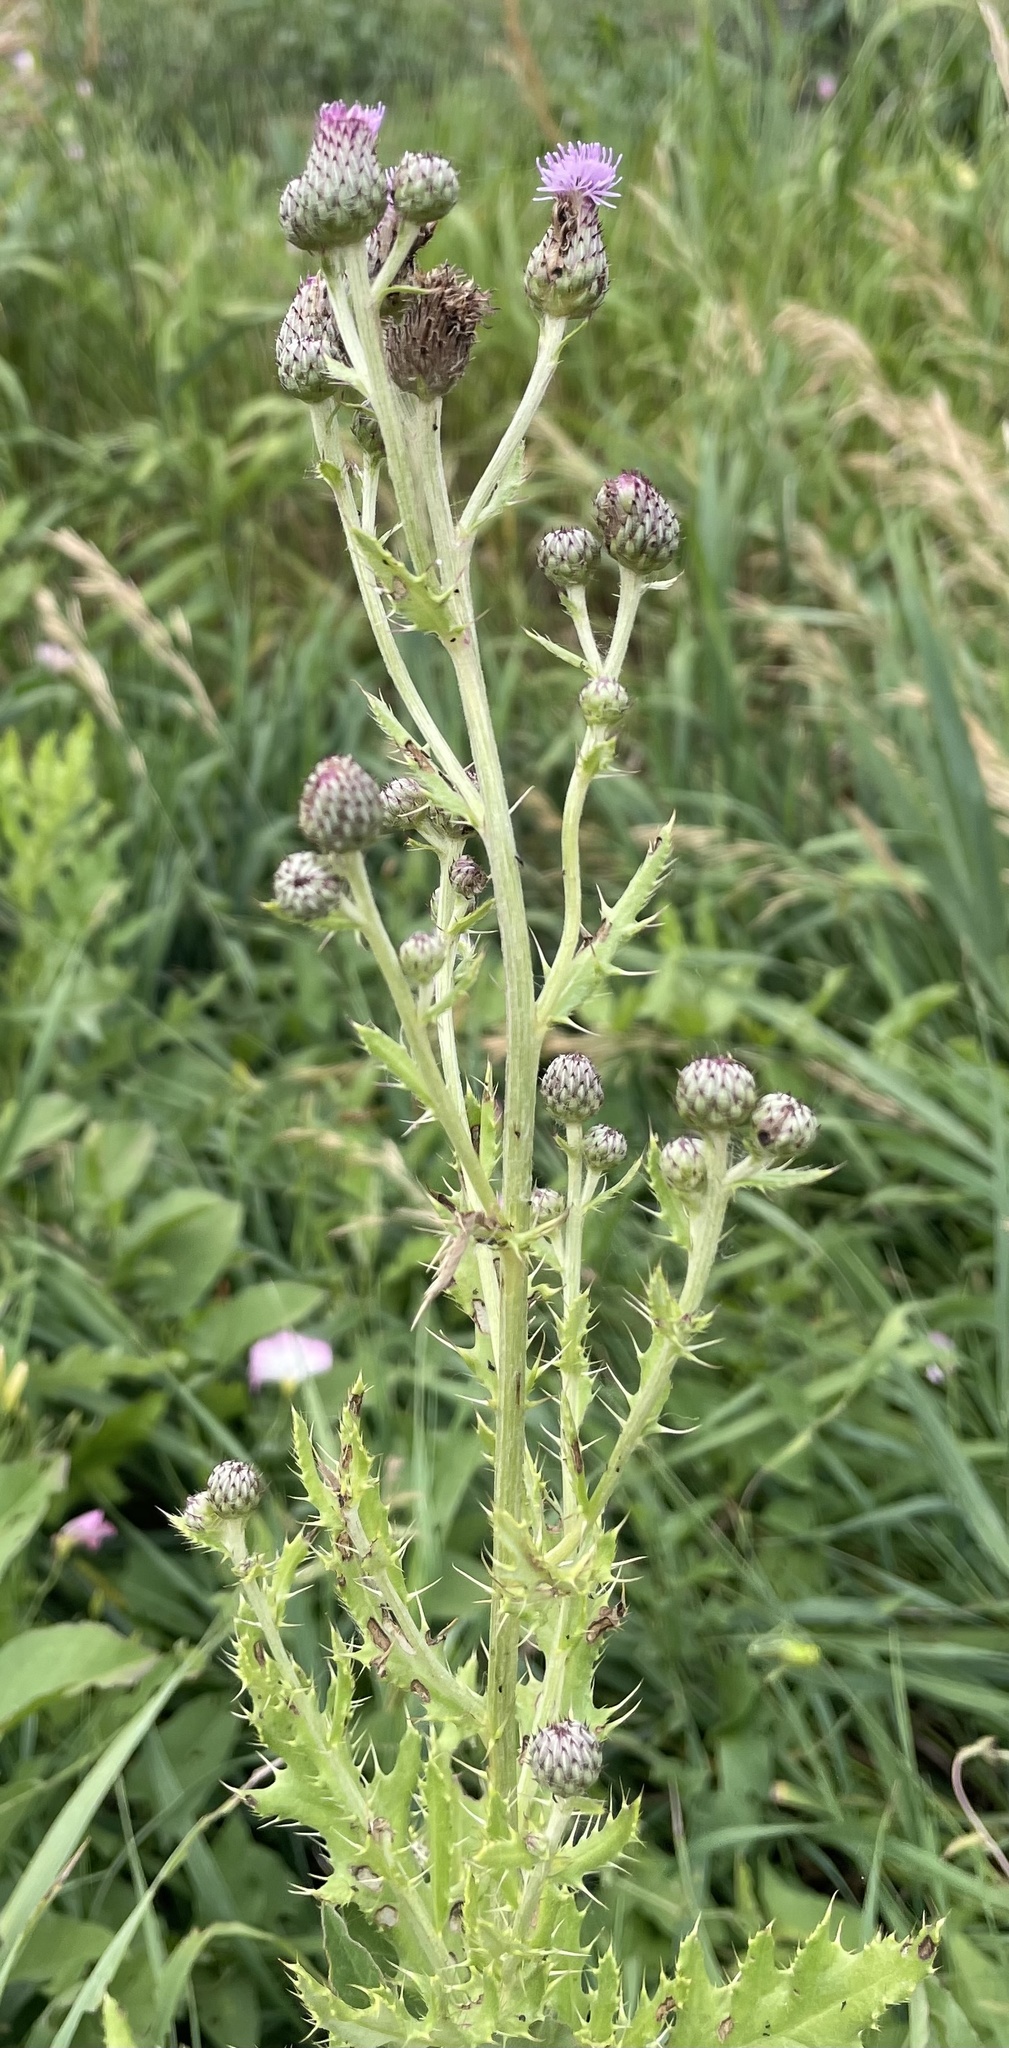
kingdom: Plantae
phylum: Tracheophyta
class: Magnoliopsida
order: Asterales
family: Asteraceae
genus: Cirsium
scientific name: Cirsium arvense
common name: Creeping thistle
